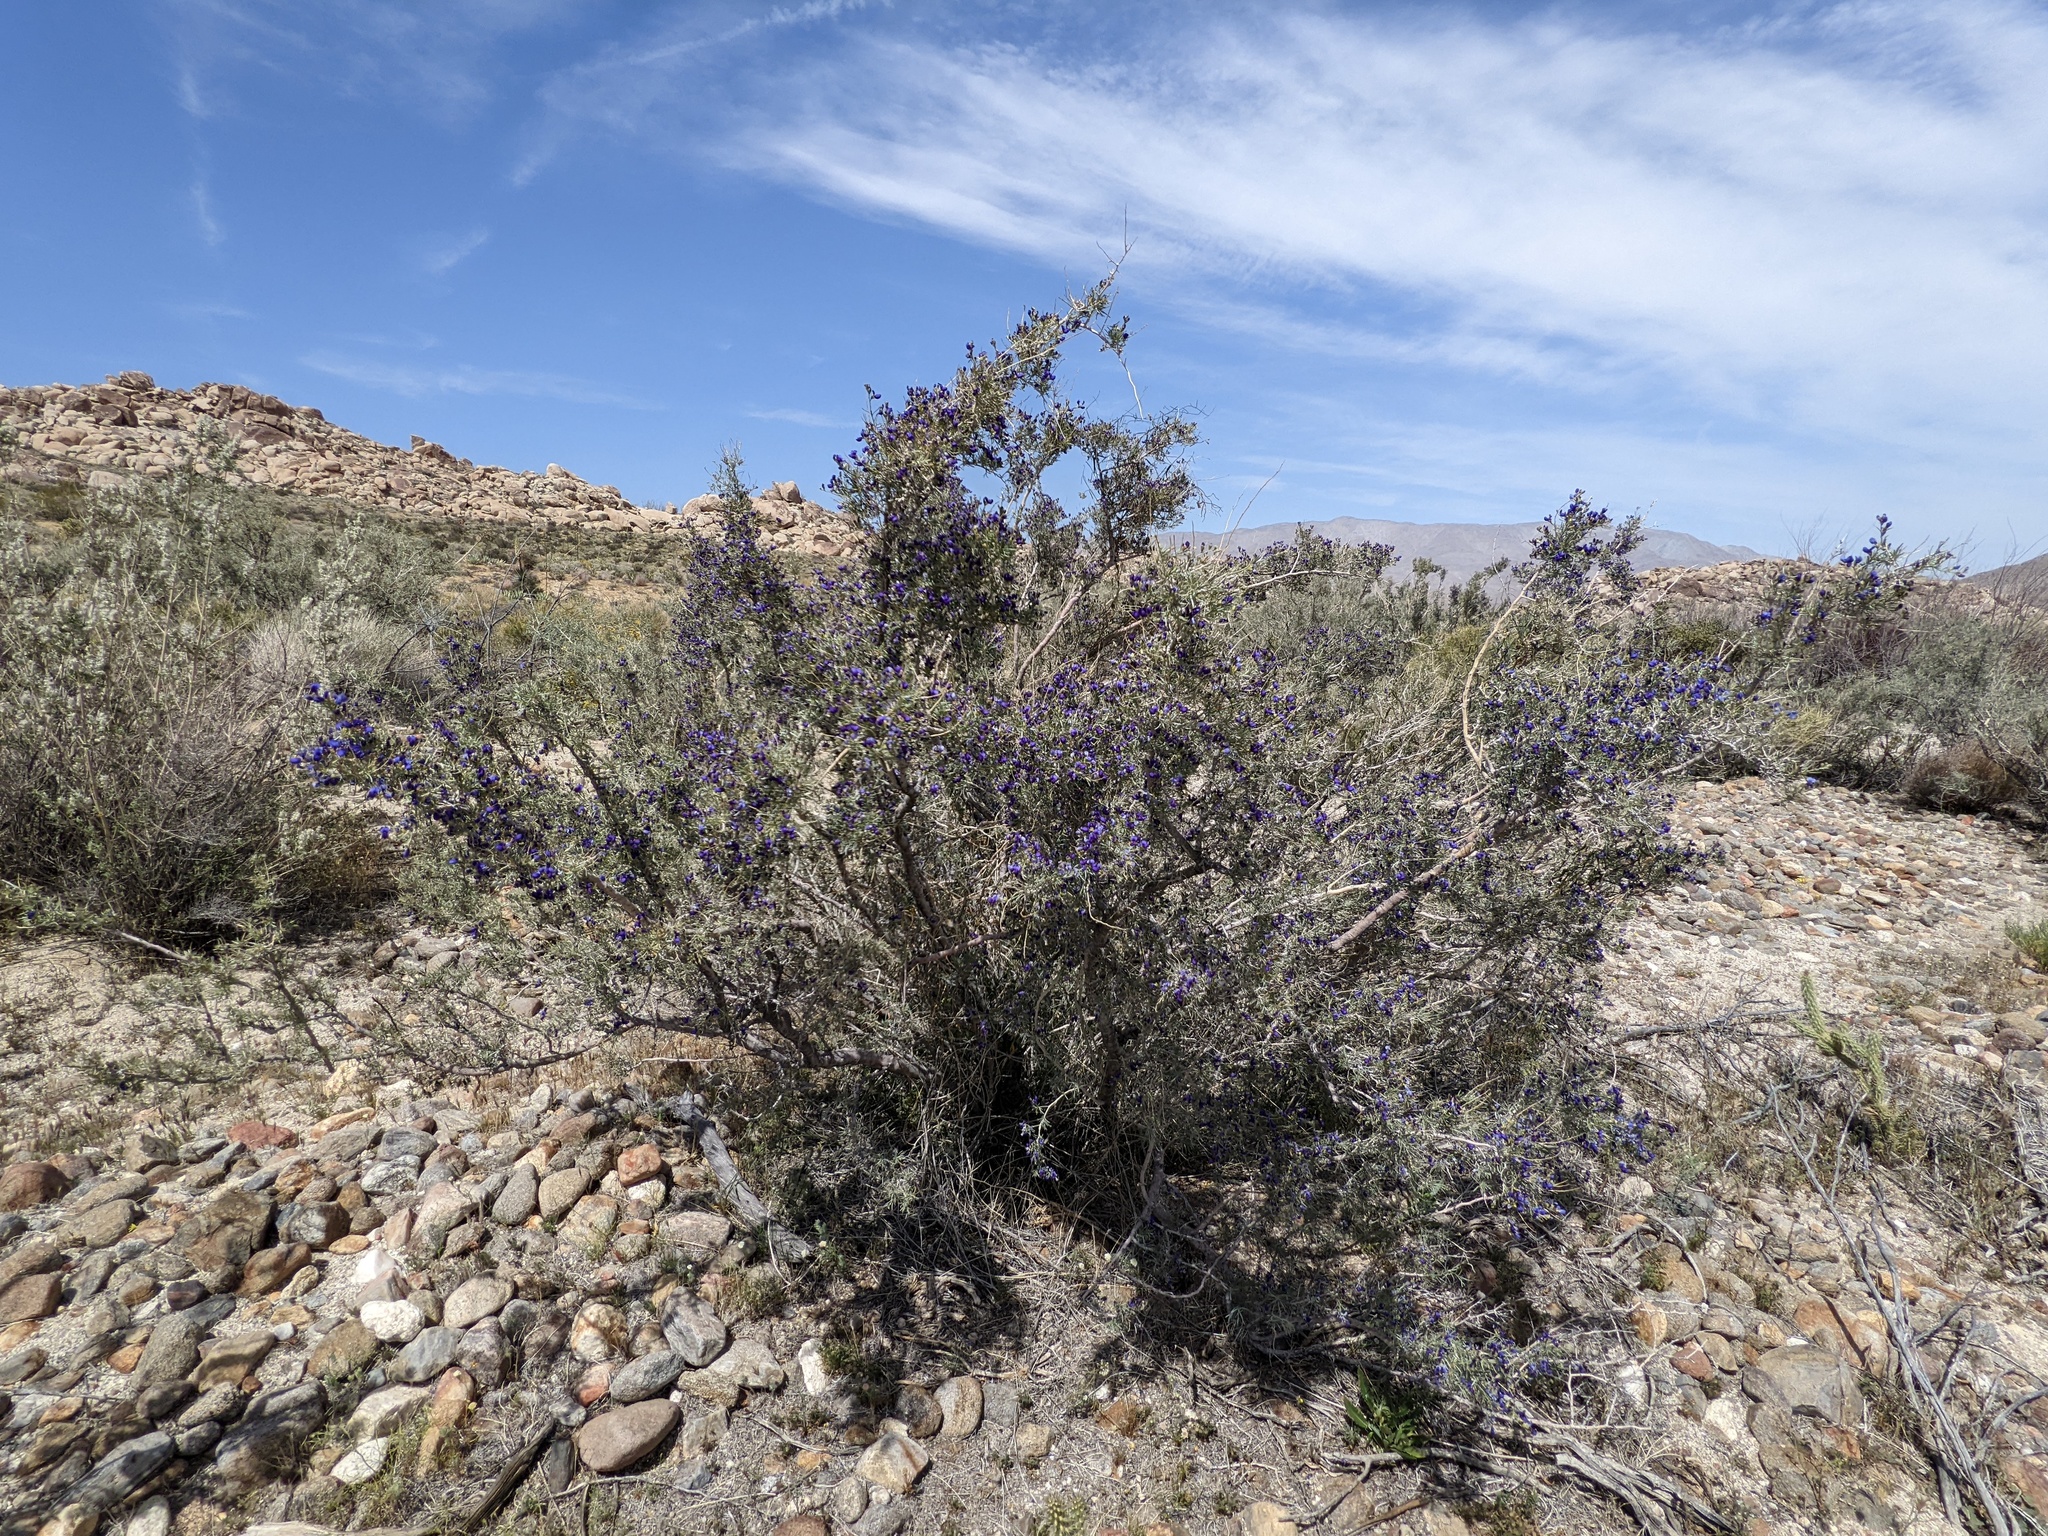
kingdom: Plantae
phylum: Tracheophyta
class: Magnoliopsida
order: Fabales
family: Fabaceae
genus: Psorothamnus
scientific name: Psorothamnus schottii
